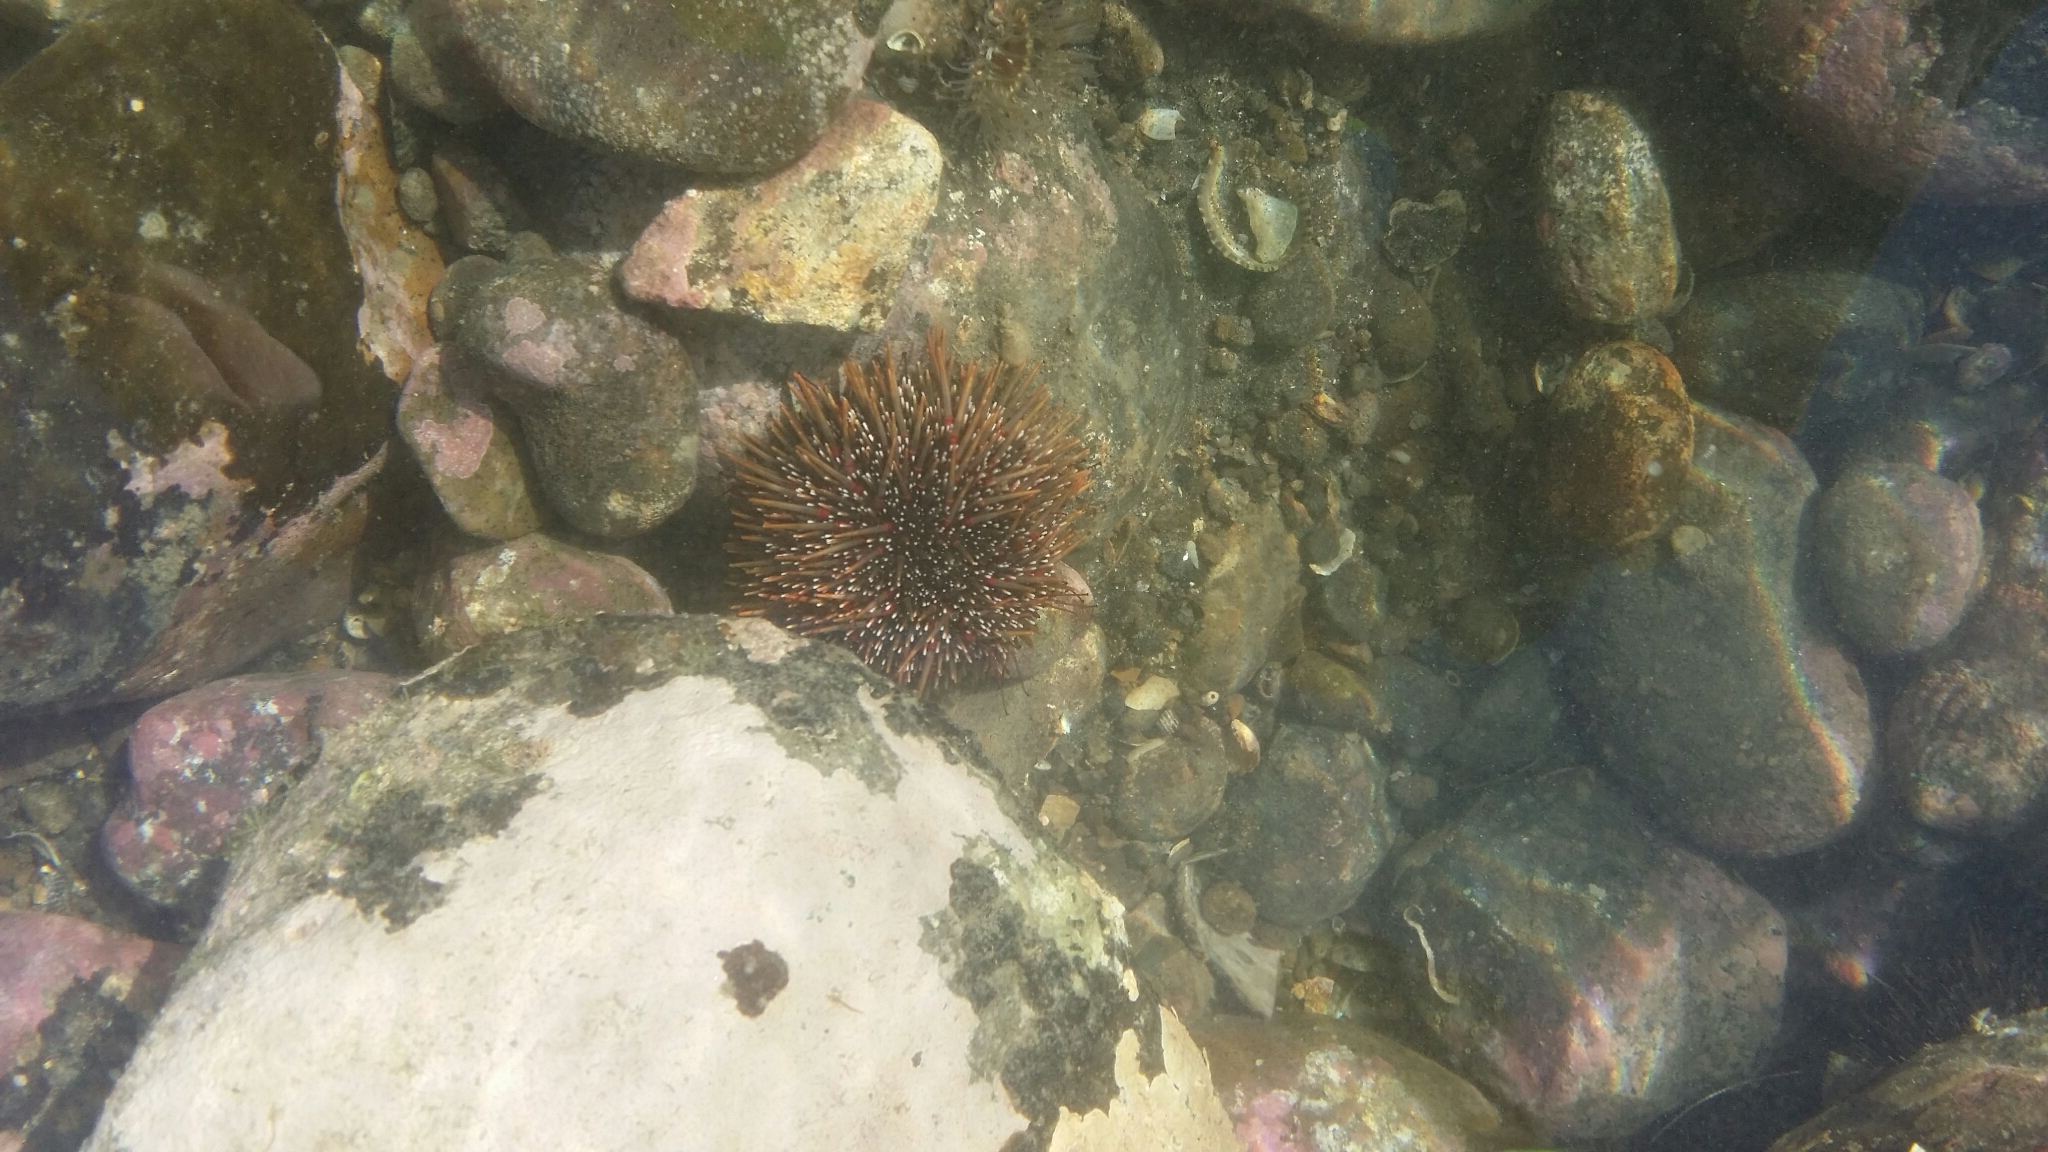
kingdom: Animalia
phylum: Echinodermata
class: Echinoidea
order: Camarodonta
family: Echinometridae
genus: Evechinus
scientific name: Evechinus chloroticus
